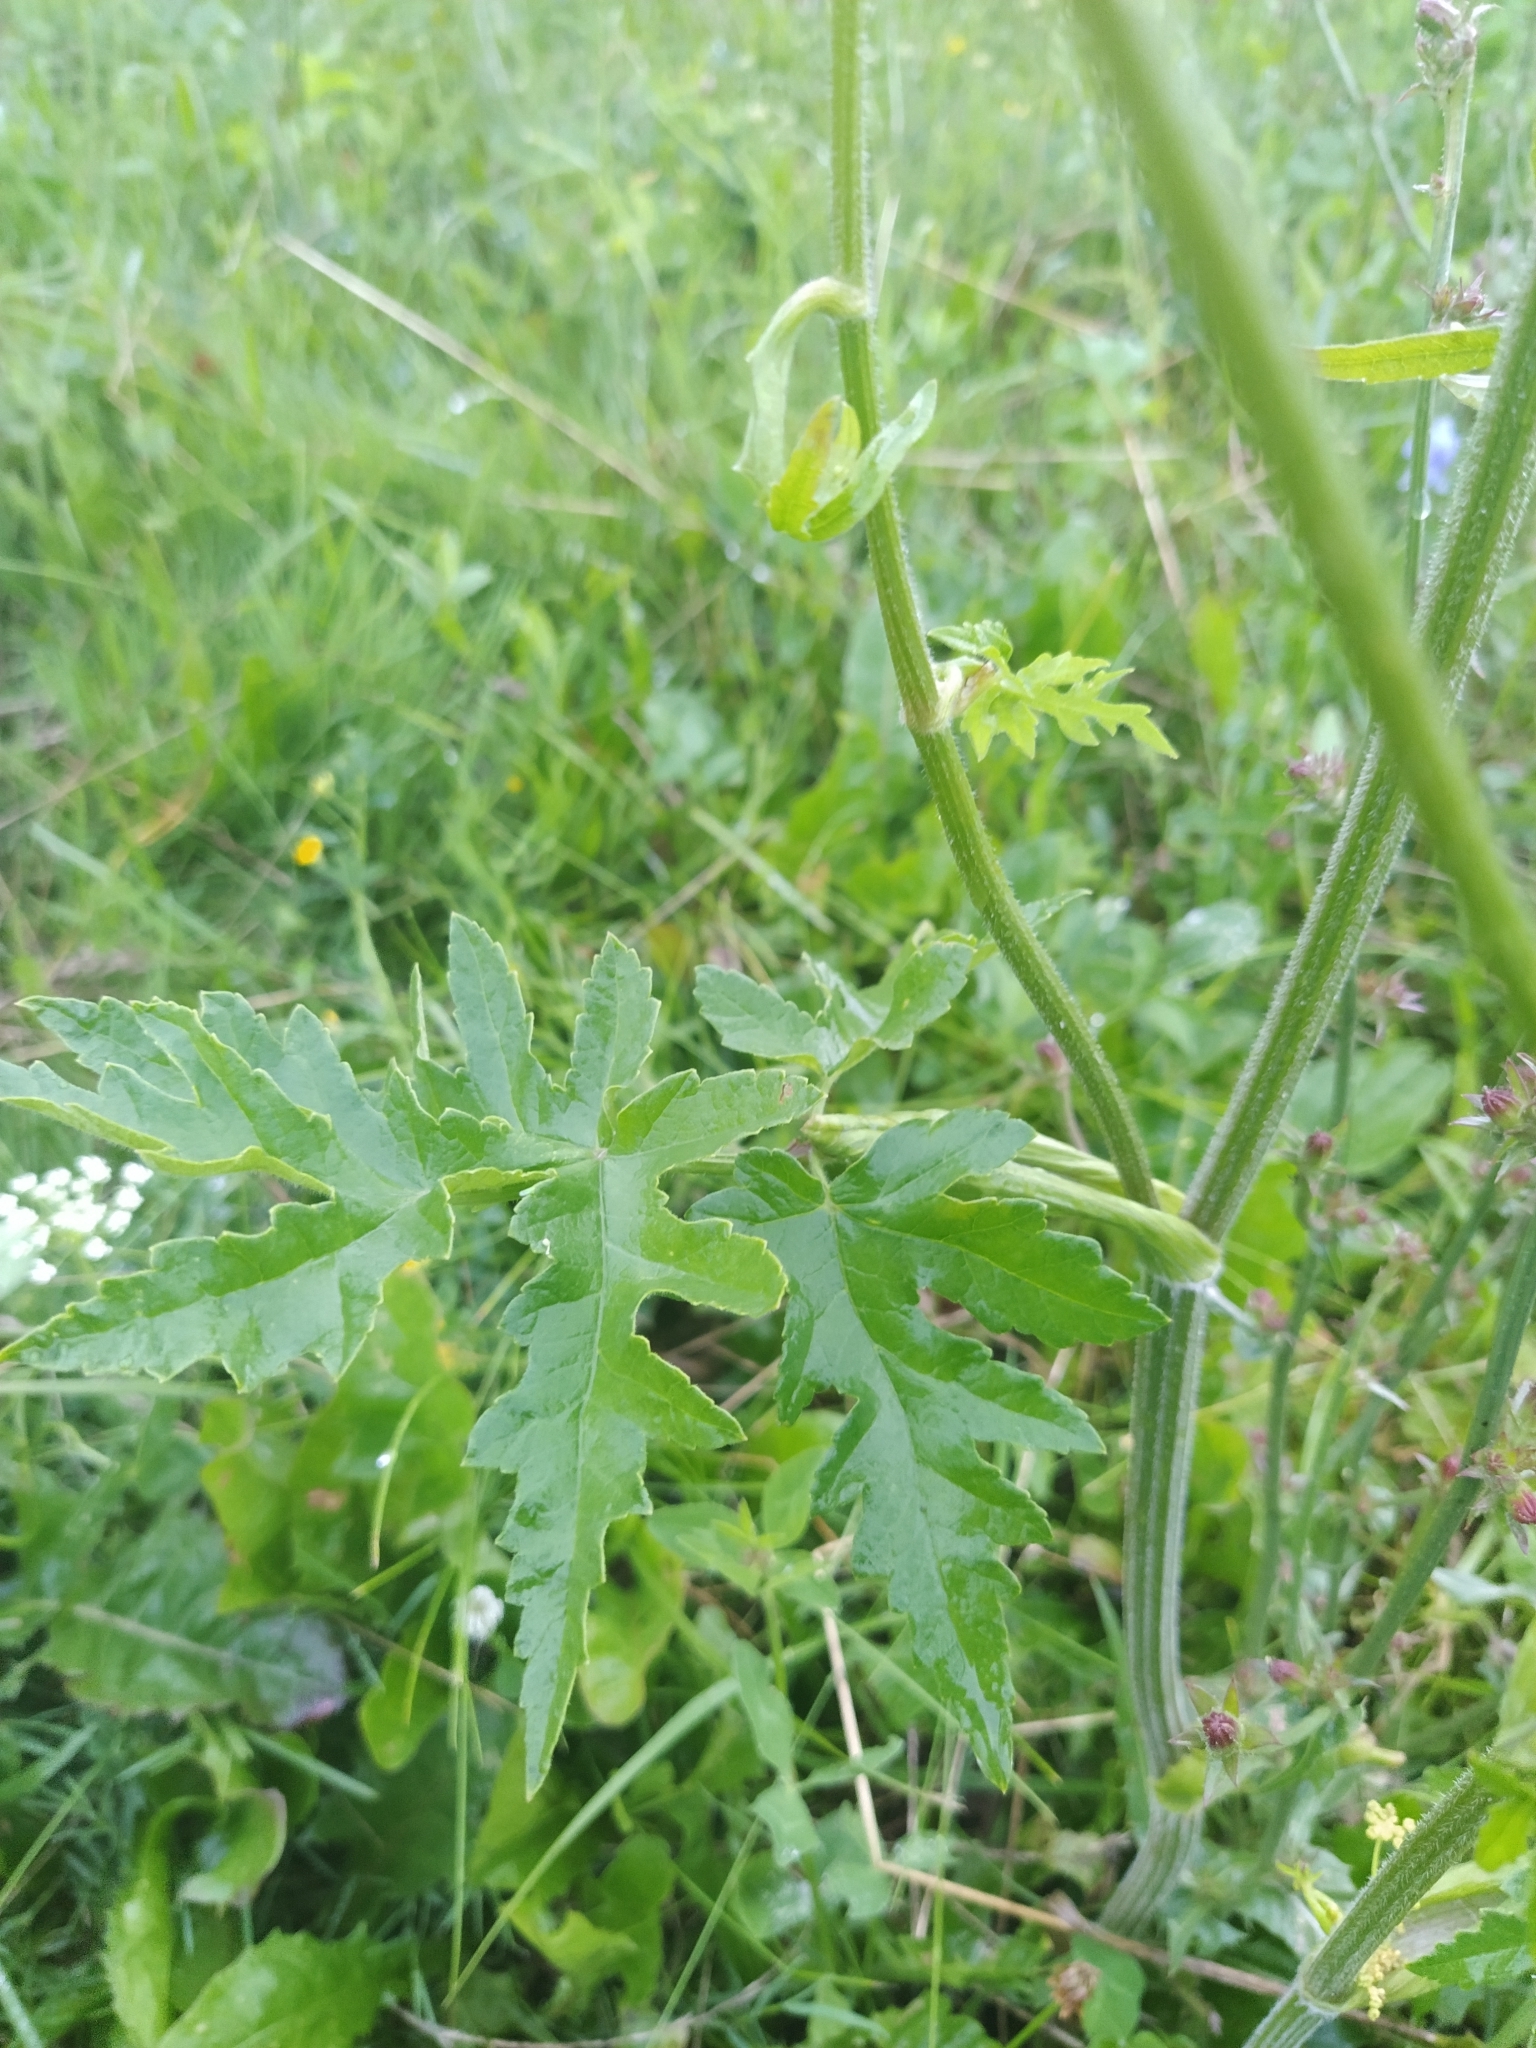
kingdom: Plantae
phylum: Tracheophyta
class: Magnoliopsida
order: Apiales
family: Apiaceae
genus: Heracleum
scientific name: Heracleum sphondylium
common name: Hogweed
